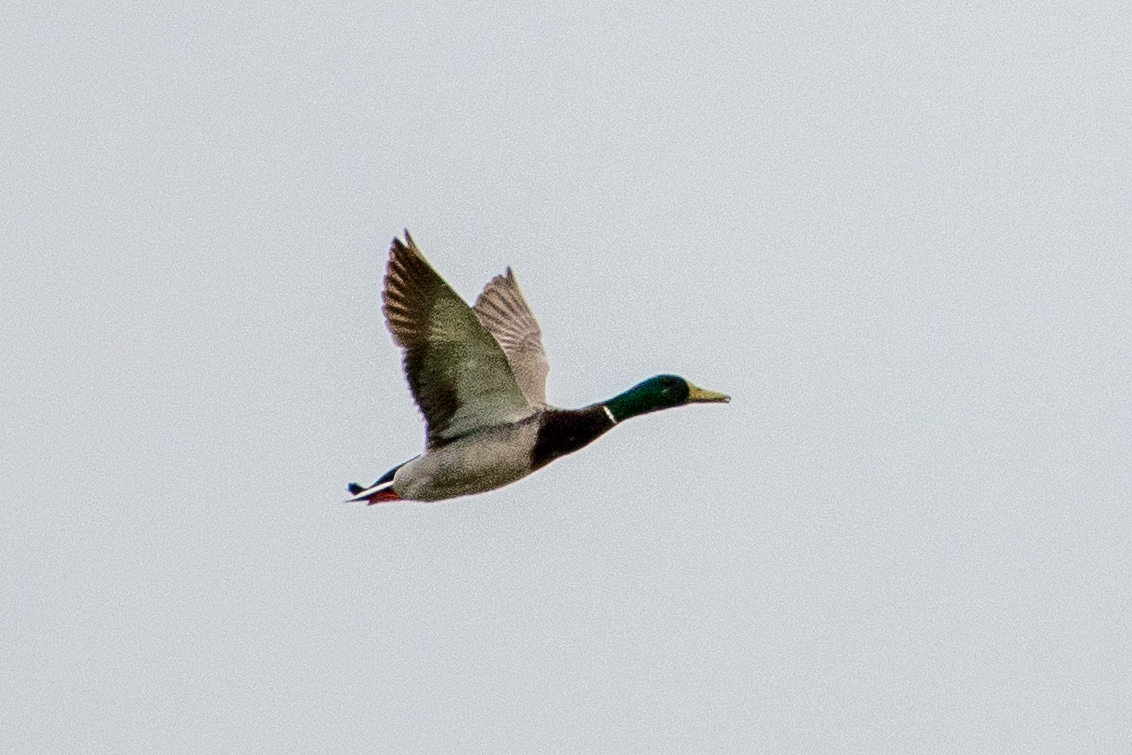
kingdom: Animalia
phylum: Chordata
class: Aves
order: Anseriformes
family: Anatidae
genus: Anas
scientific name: Anas platyrhynchos
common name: Mallard
